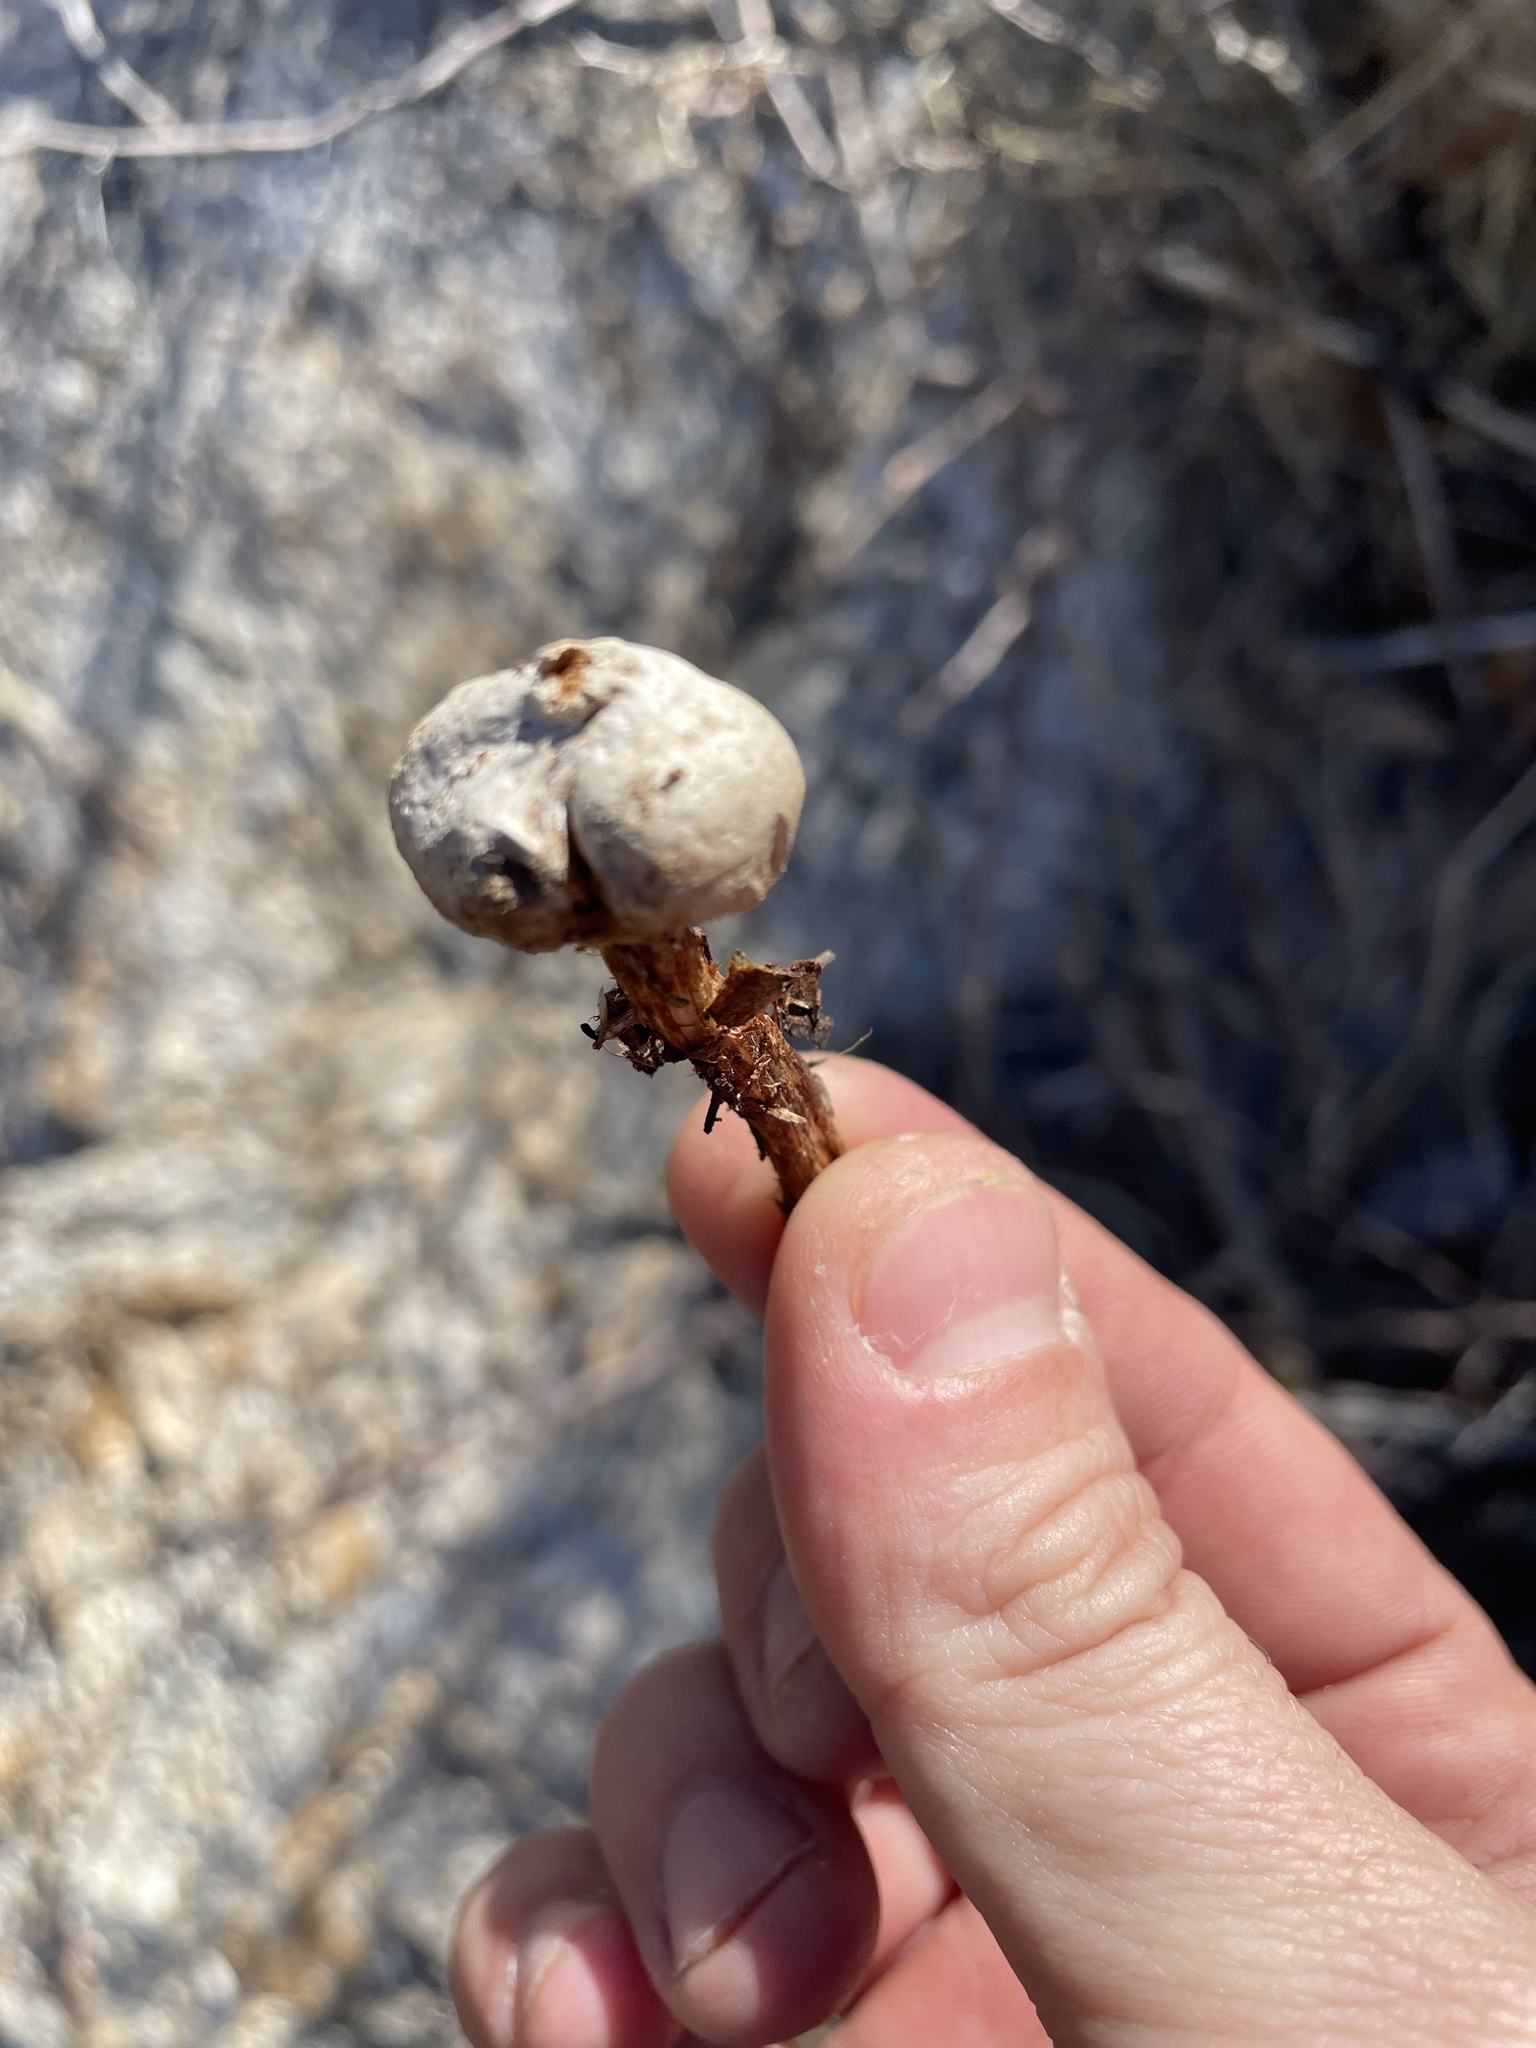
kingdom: Fungi
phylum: Basidiomycota
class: Agaricomycetes
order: Agaricales
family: Agaricaceae
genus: Tulostoma
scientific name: Tulostoma albicans
